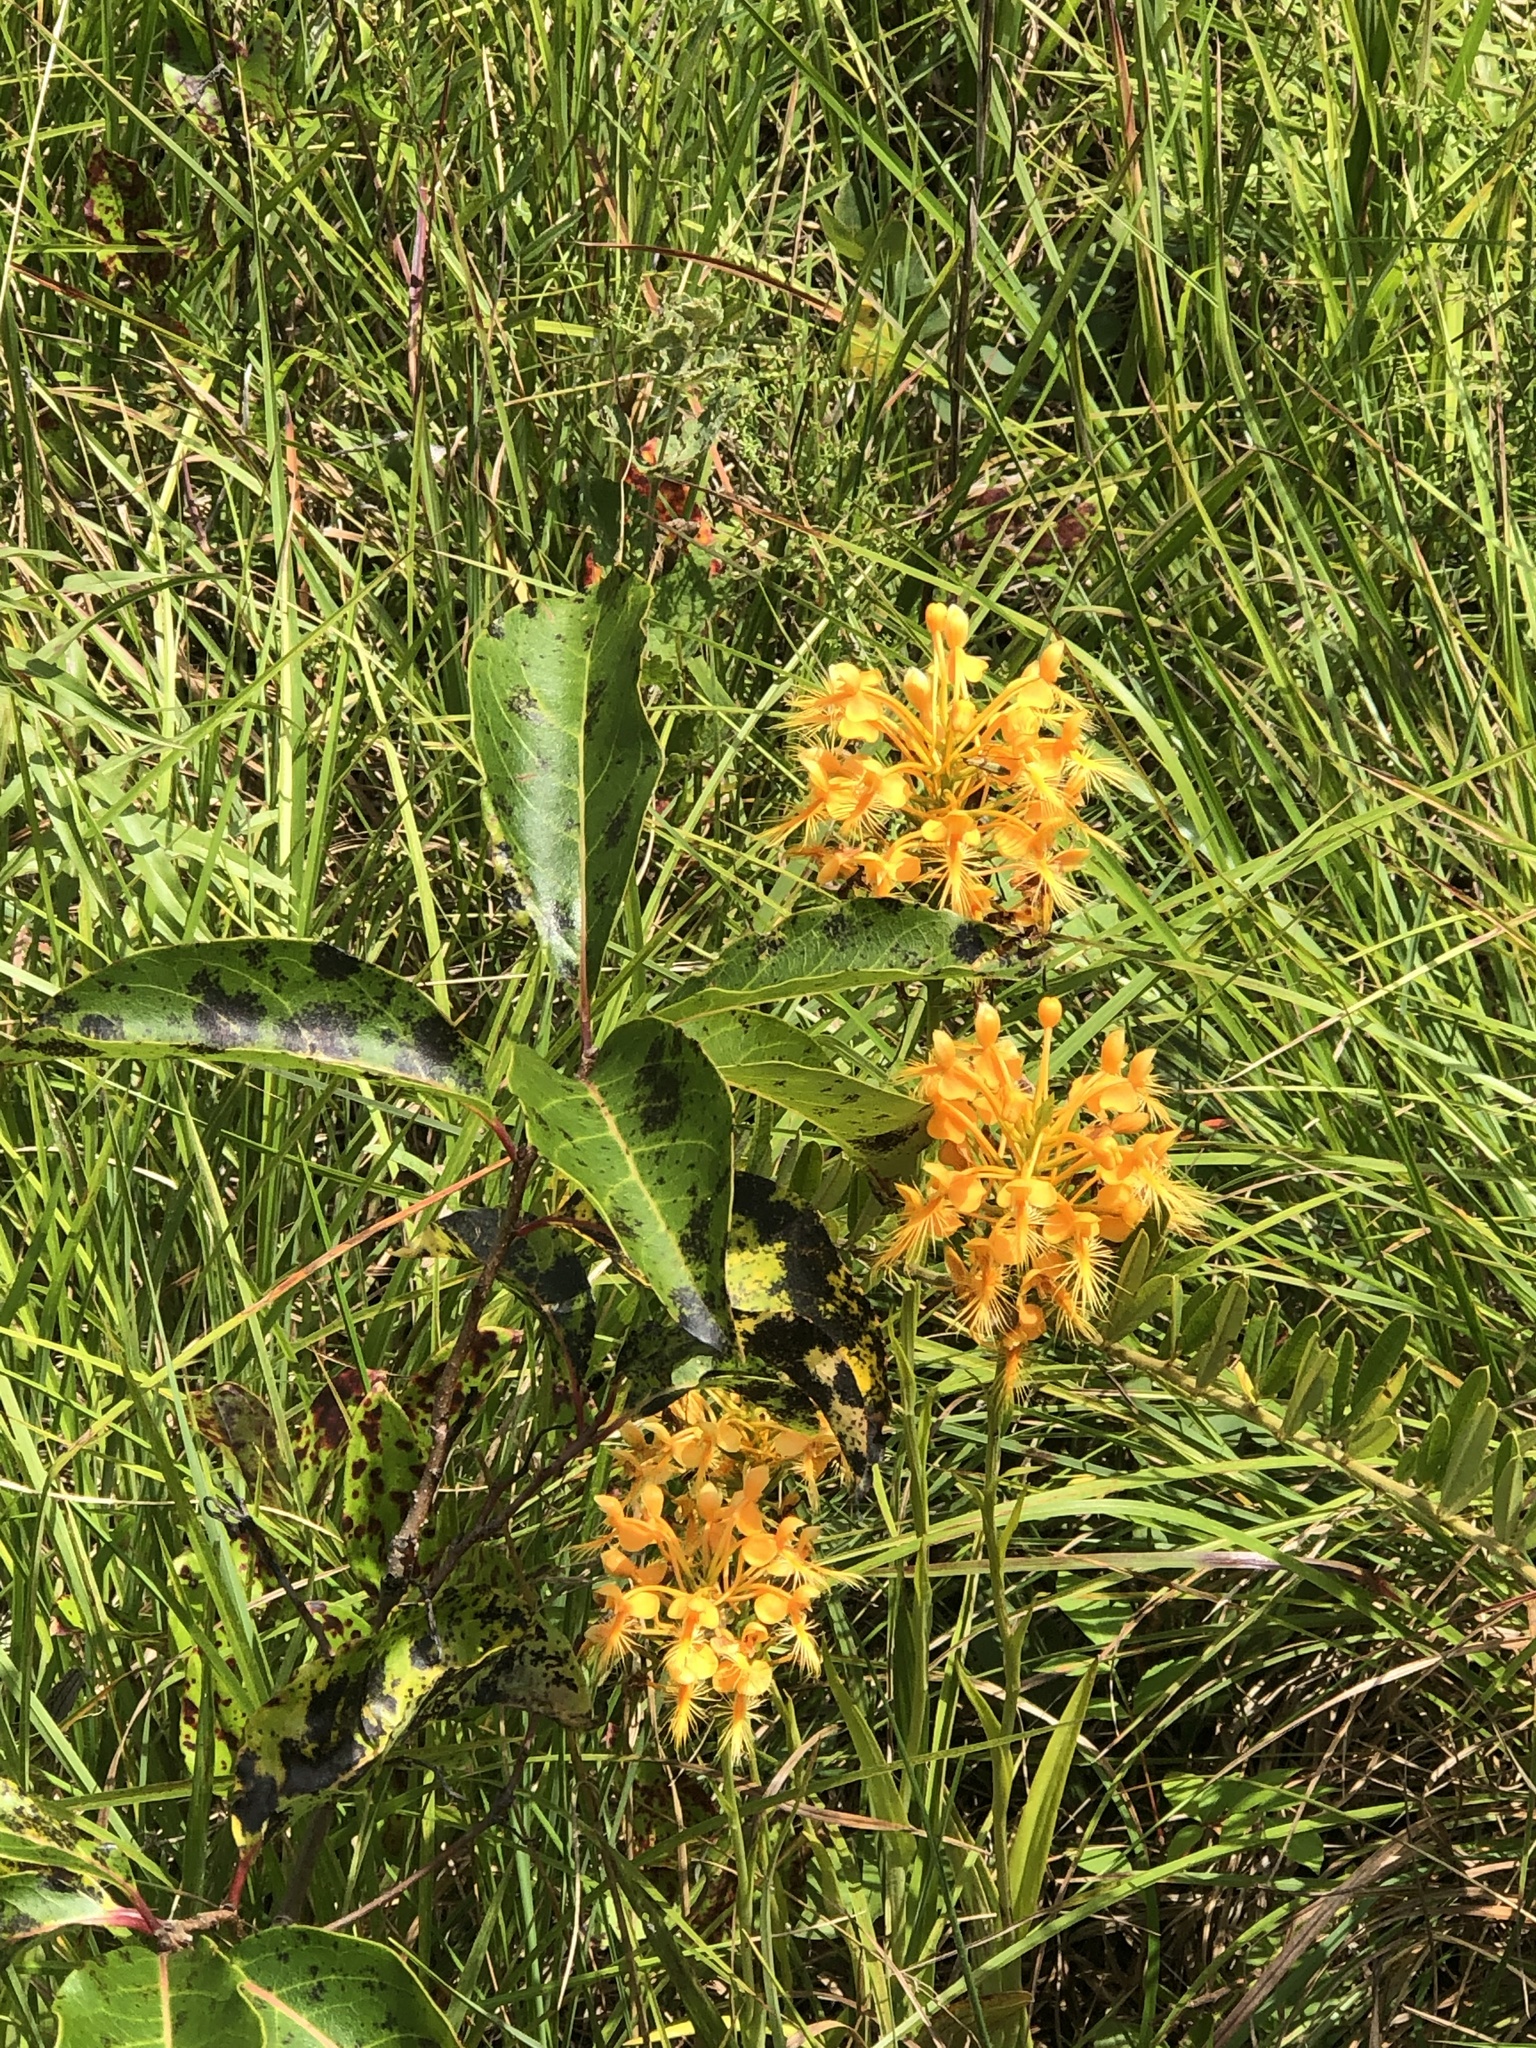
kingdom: Plantae
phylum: Tracheophyta
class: Liliopsida
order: Asparagales
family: Orchidaceae
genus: Platanthera
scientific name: Platanthera ciliaris
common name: Yellow fringed orchid
